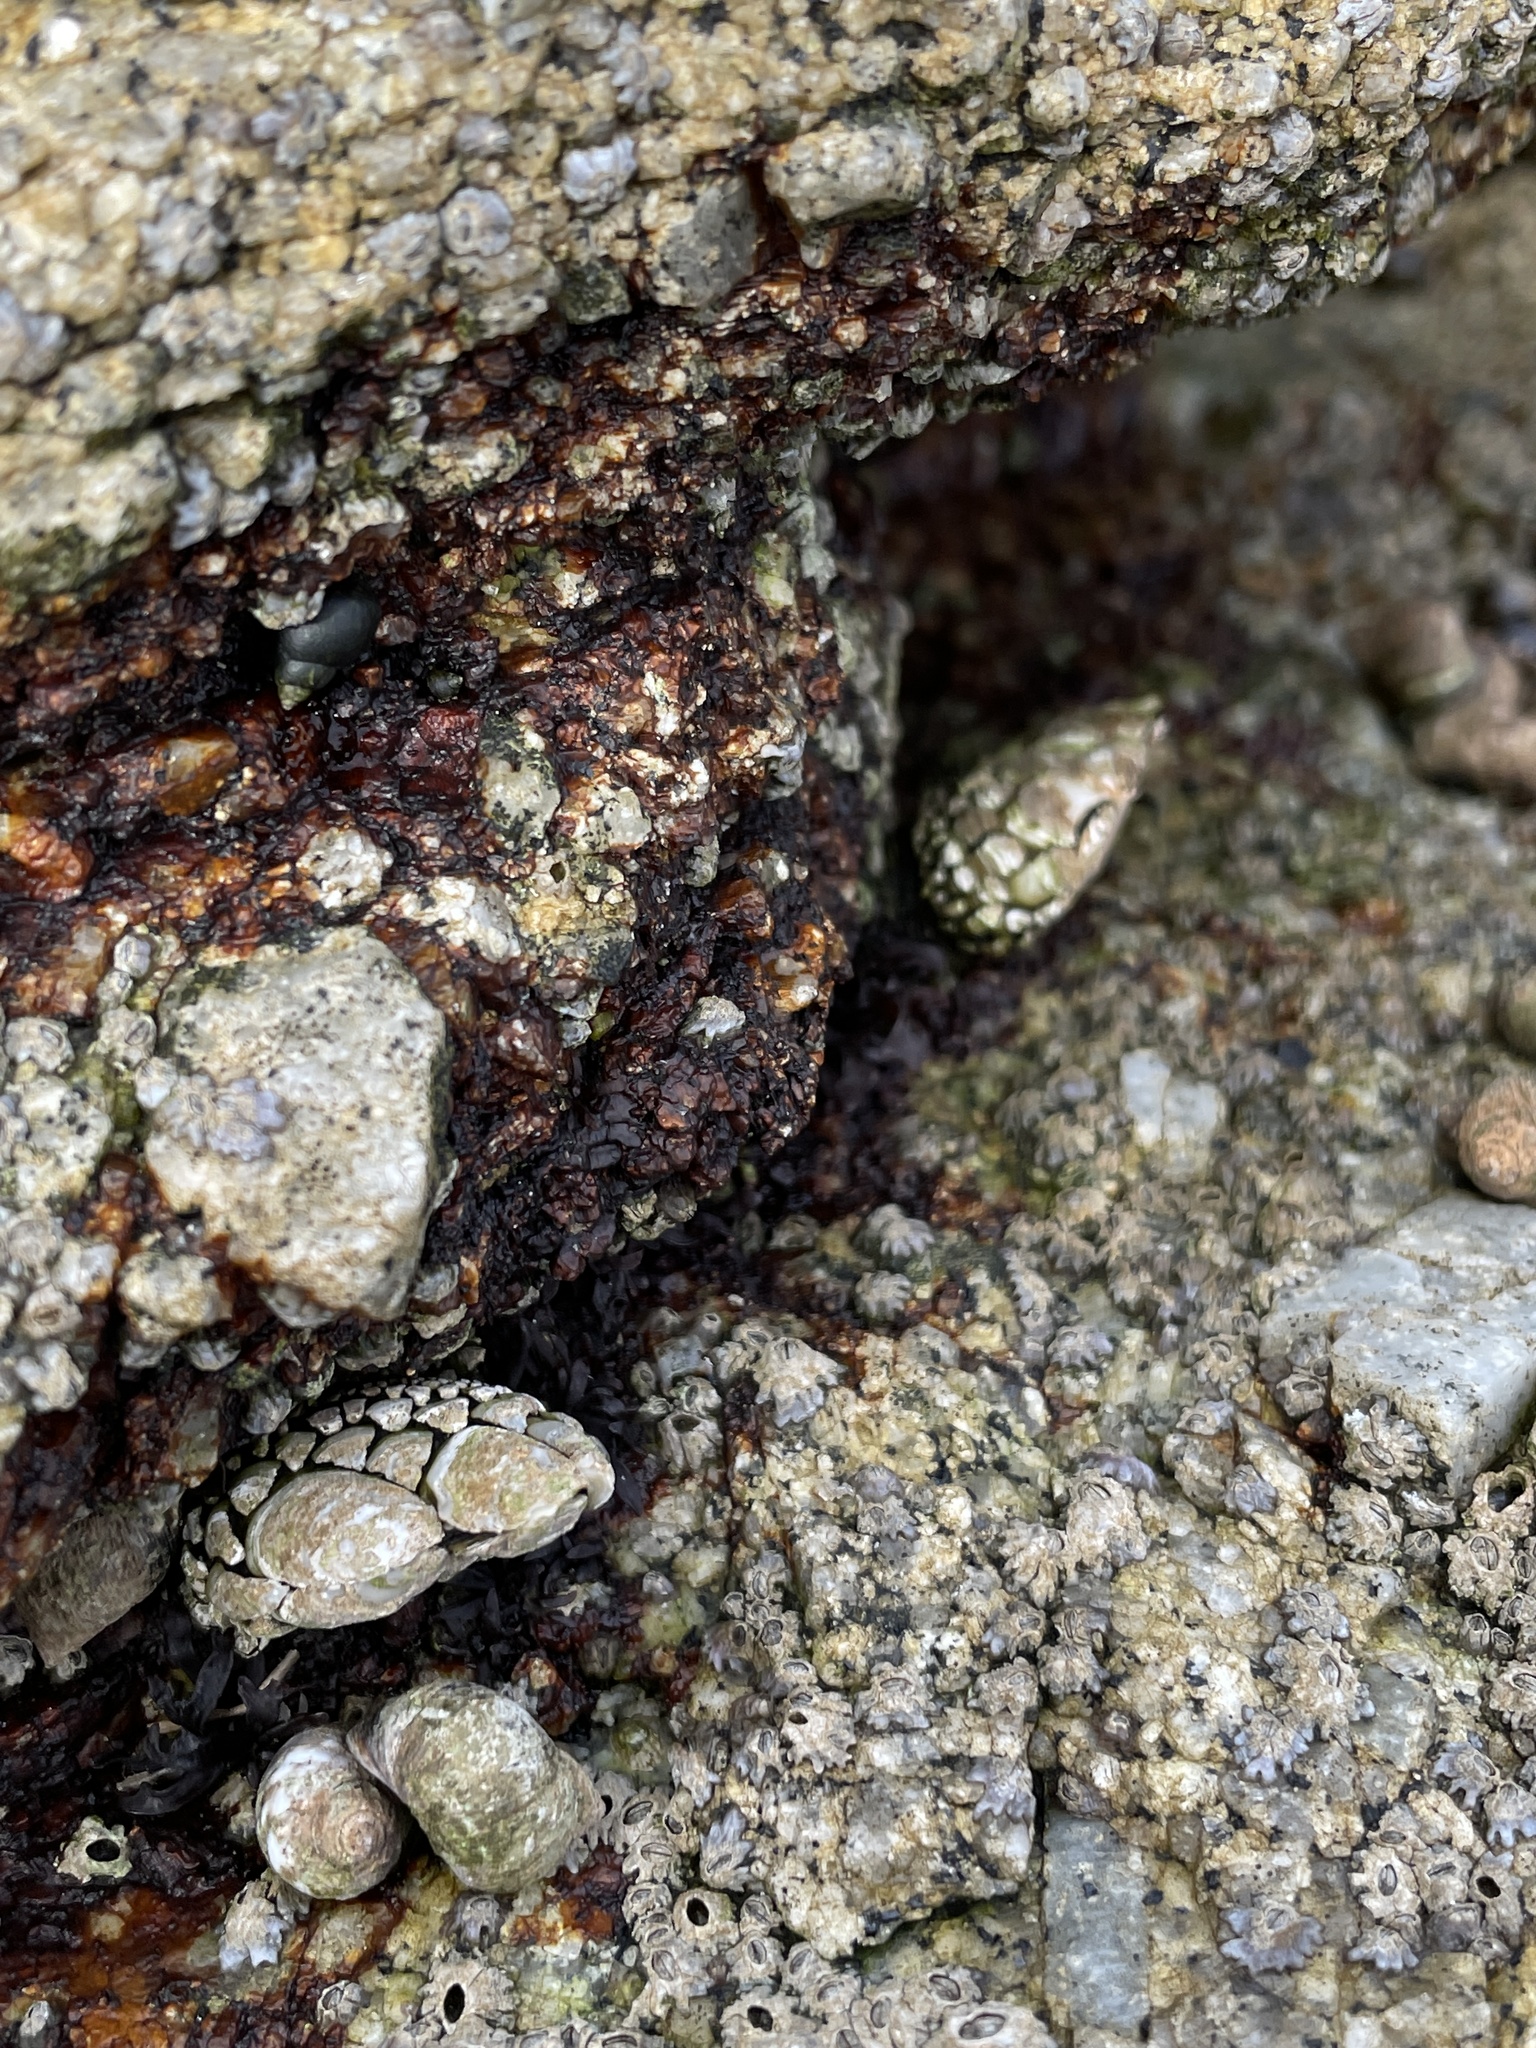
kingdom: Animalia
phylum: Arthropoda
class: Maxillopoda
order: Pedunculata
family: Pollicipedidae
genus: Pollicipes
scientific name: Pollicipes polymerus
